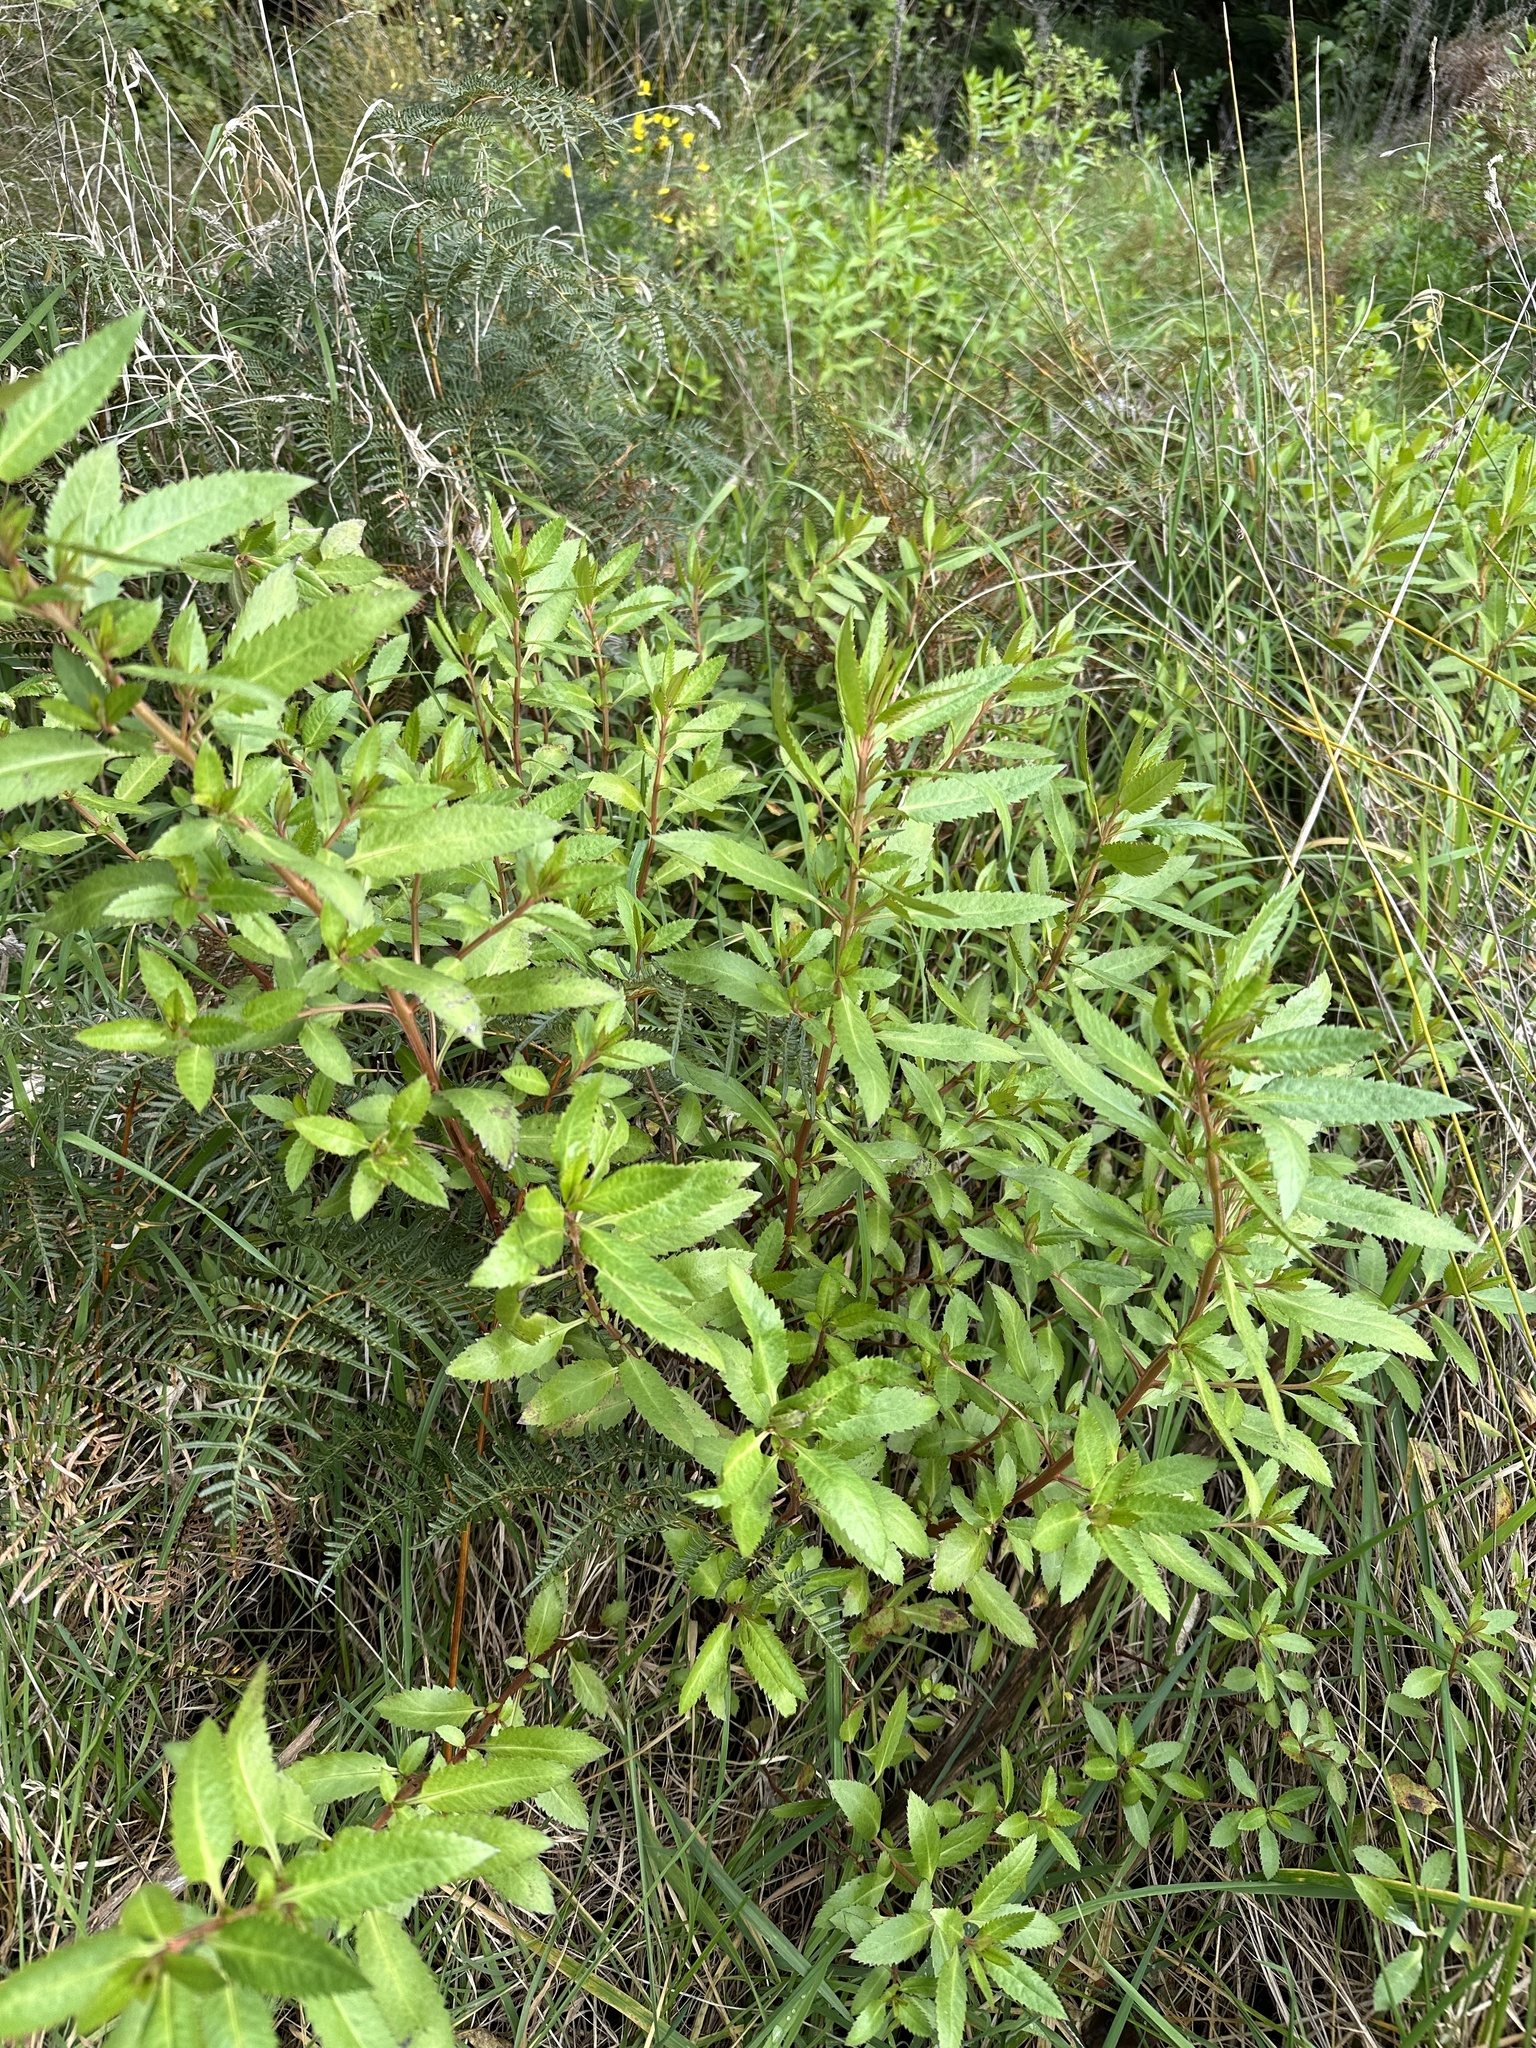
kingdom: Plantae
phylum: Tracheophyta
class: Magnoliopsida
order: Saxifragales
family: Haloragaceae
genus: Haloragis
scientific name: Haloragis erecta
